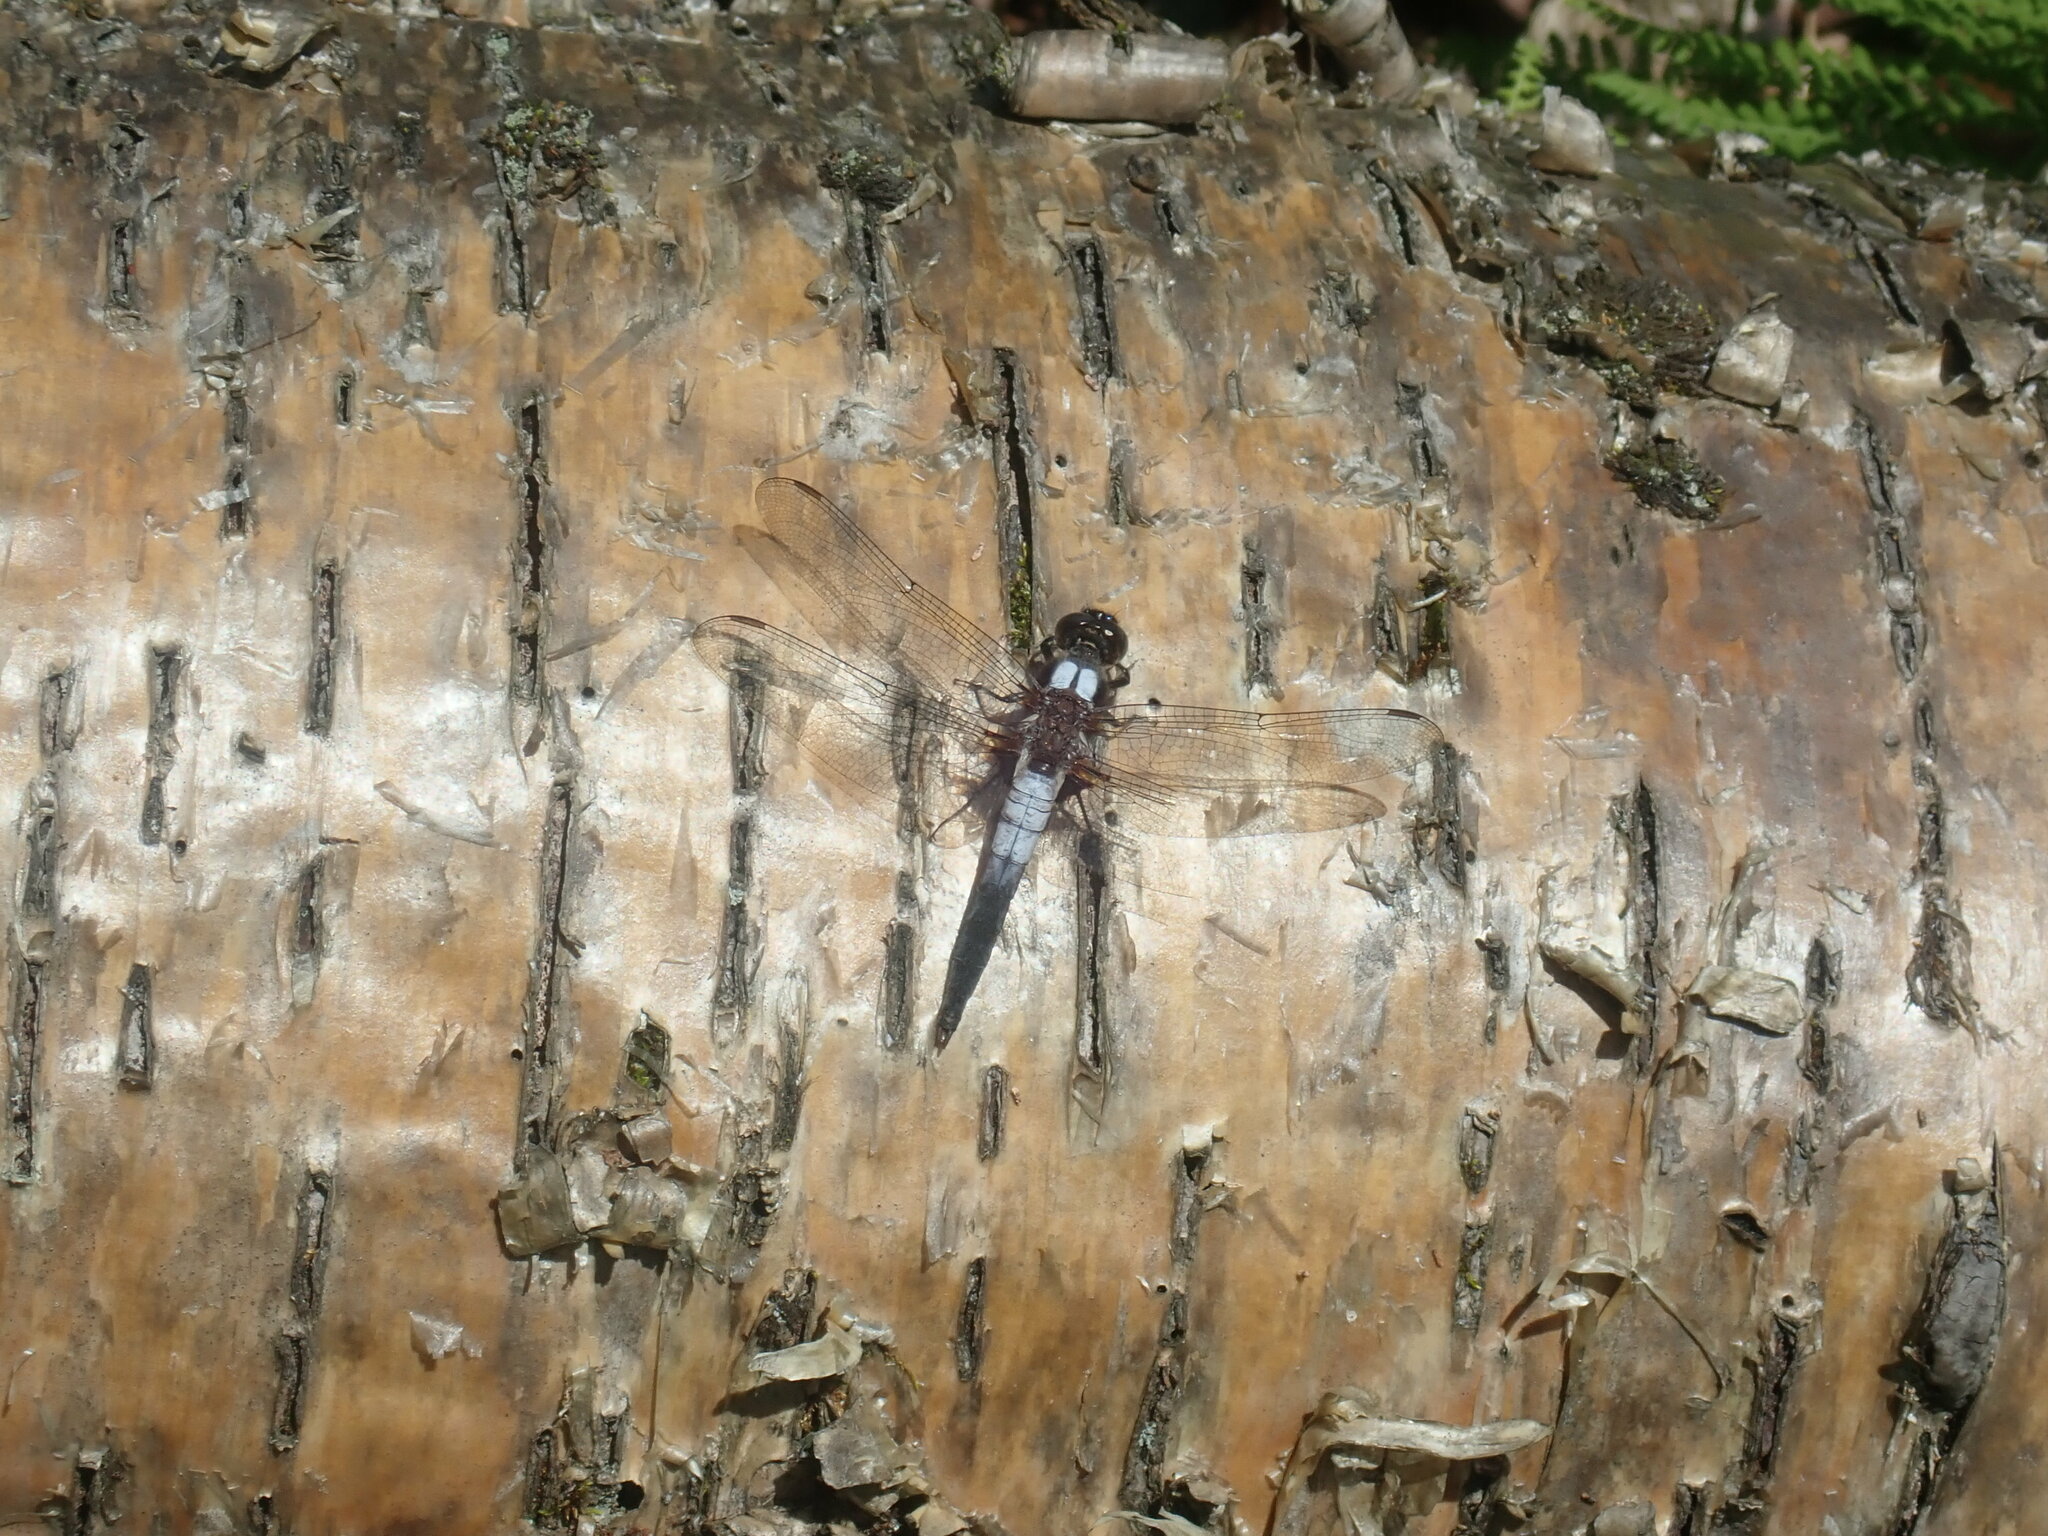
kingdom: Animalia
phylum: Arthropoda
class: Insecta
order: Odonata
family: Libellulidae
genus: Ladona
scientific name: Ladona julia
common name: Chalk-fronted corporal
